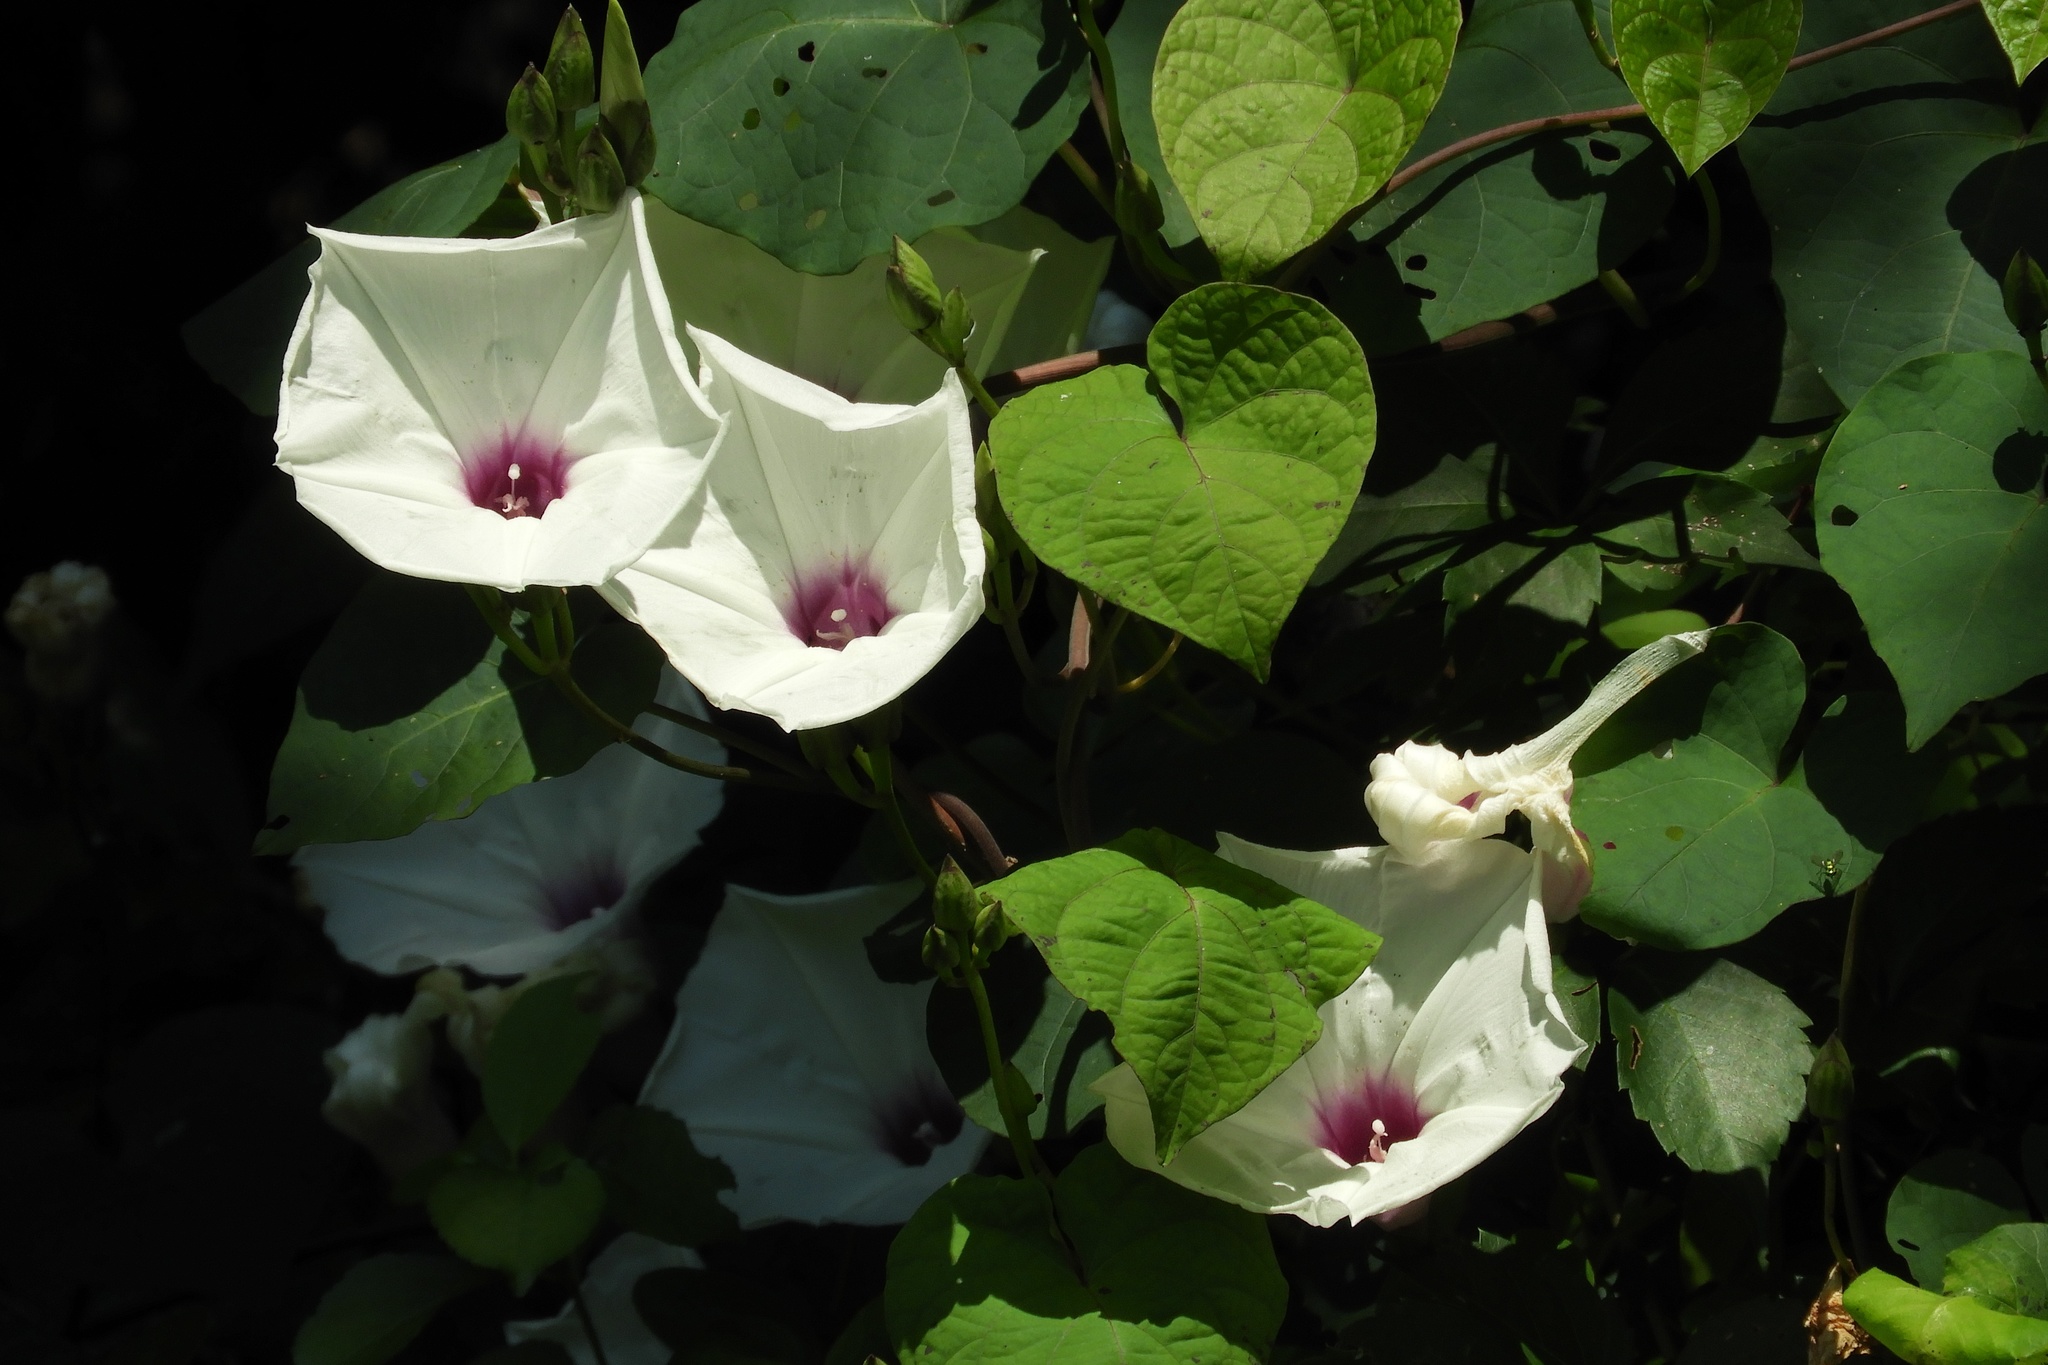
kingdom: Plantae
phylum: Tracheophyta
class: Magnoliopsida
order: Solanales
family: Convolvulaceae
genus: Ipomoea
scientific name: Ipomoea pandurata
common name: Man-of-the-earth
